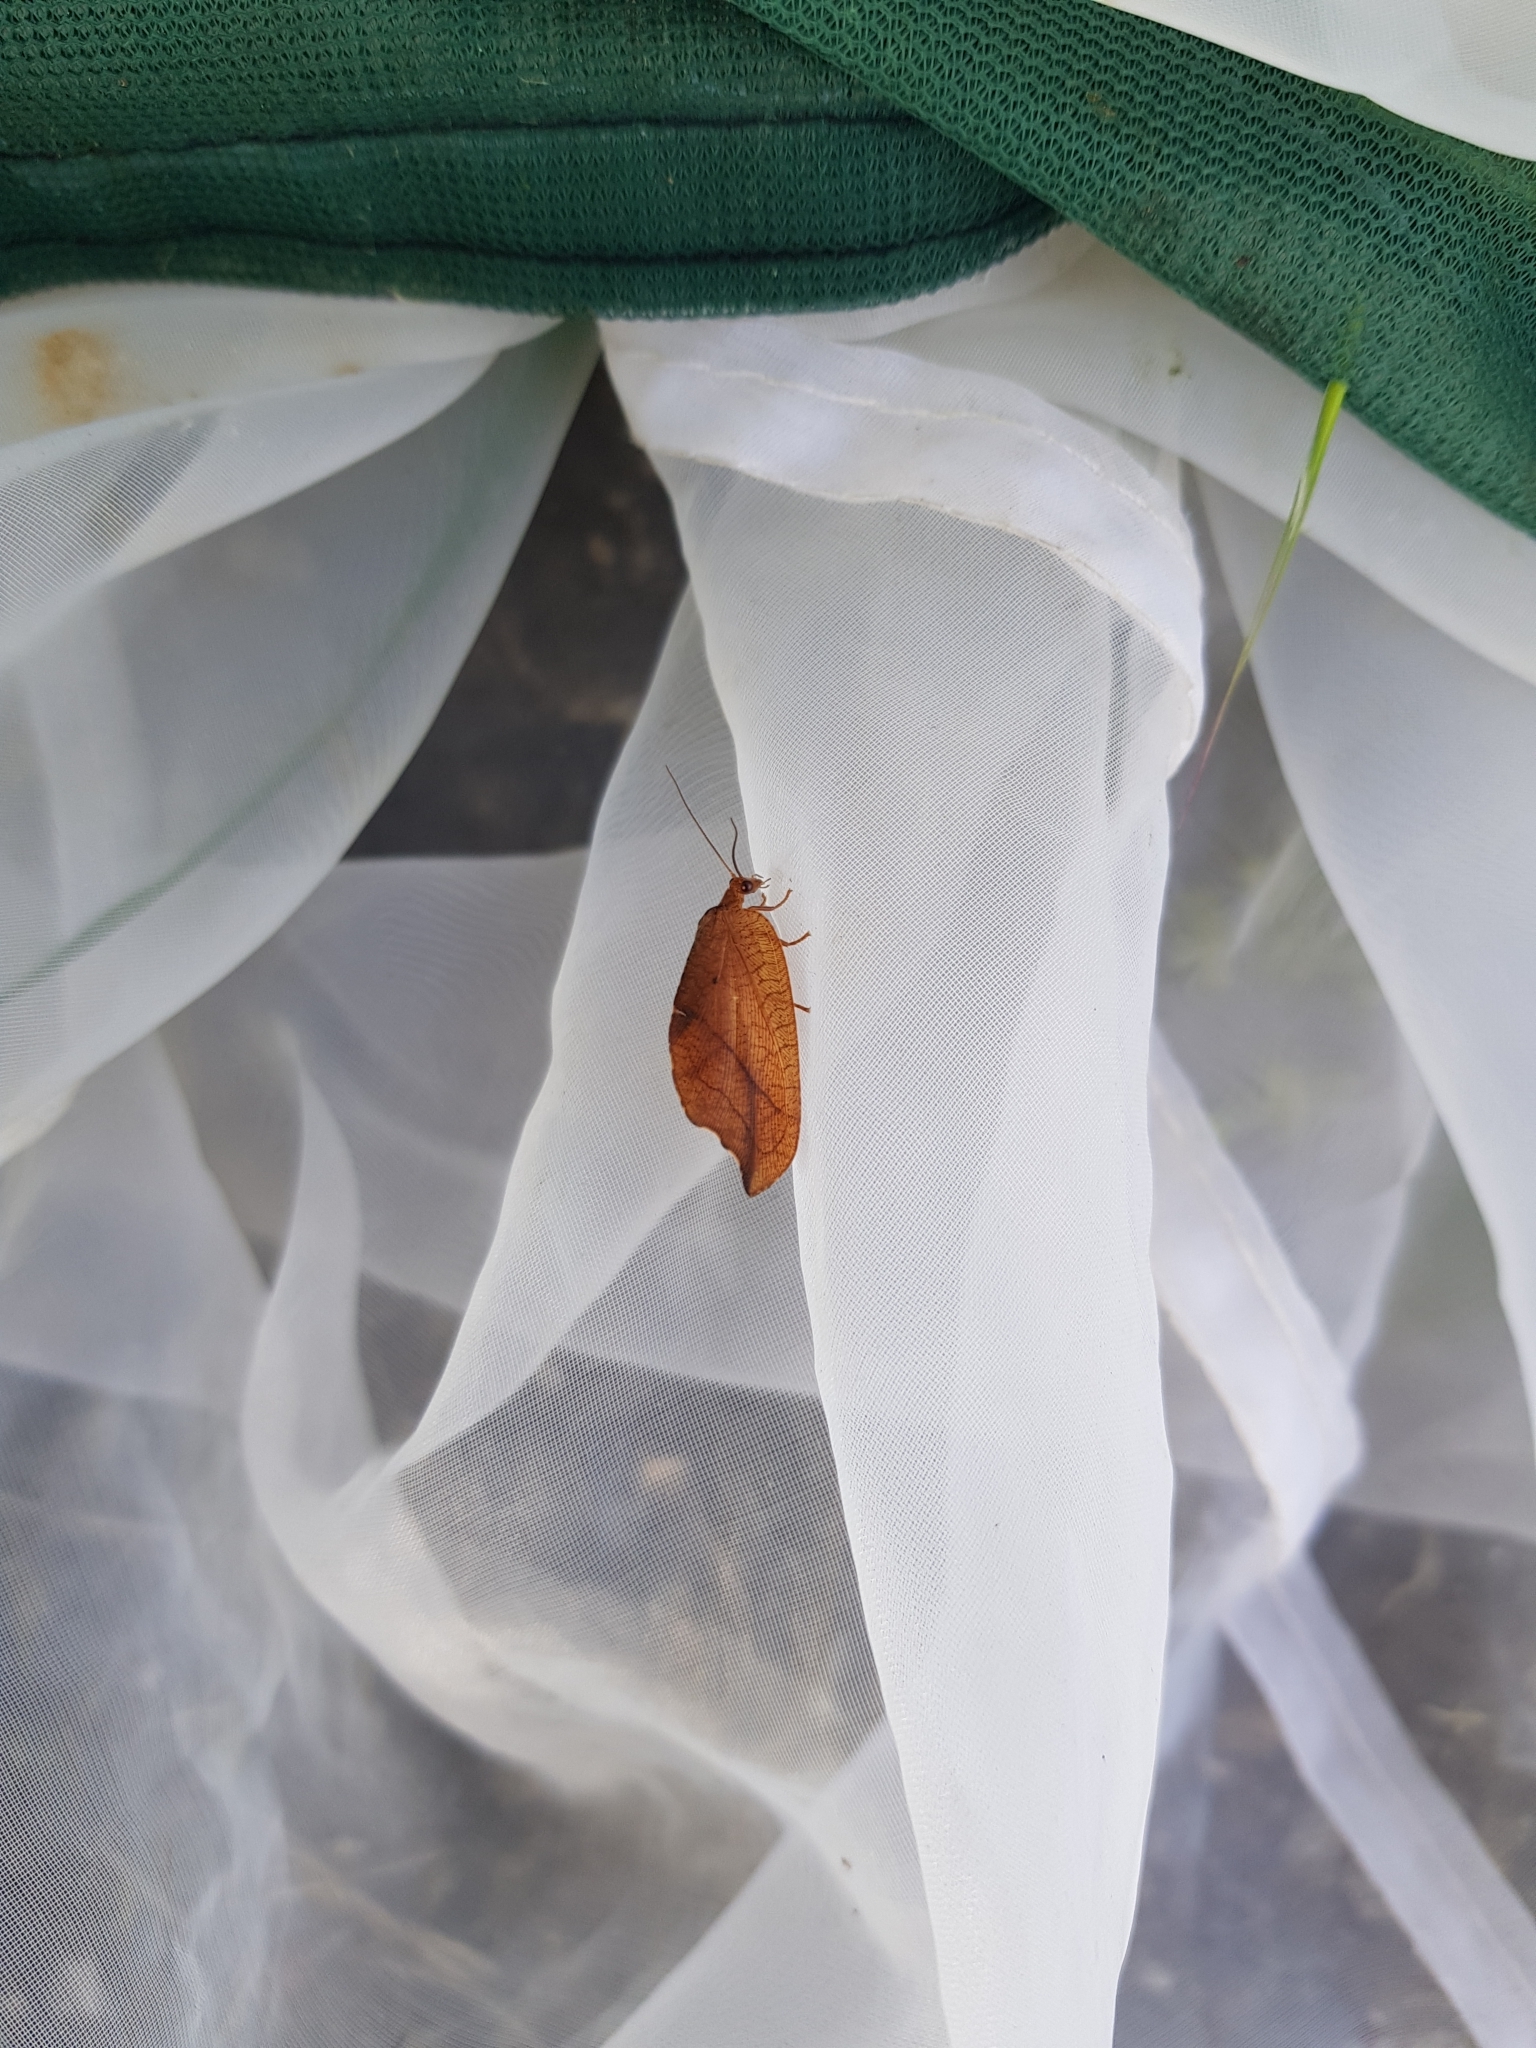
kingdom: Animalia
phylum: Arthropoda
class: Insecta
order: Neuroptera
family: Hemerobiidae
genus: Drepanepteryx
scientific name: Drepanepteryx phalaenoides
